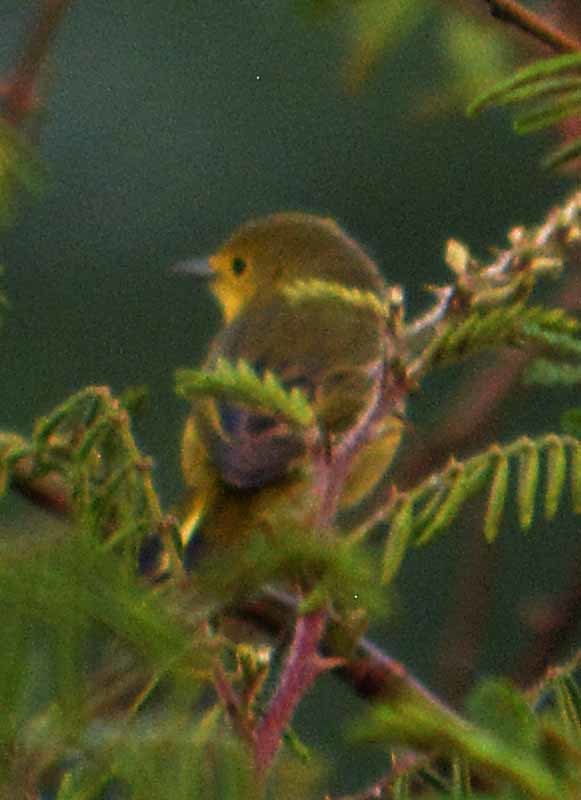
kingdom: Animalia
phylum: Chordata
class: Aves
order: Passeriformes
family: Parulidae
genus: Setophaga
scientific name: Setophaga petechia
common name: Yellow warbler
